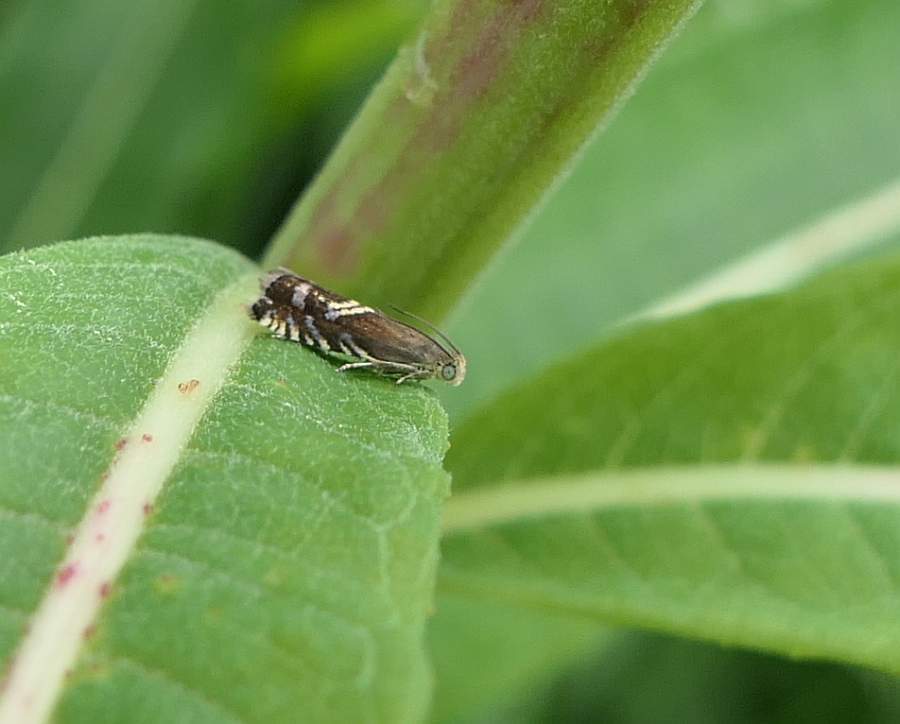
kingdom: Animalia
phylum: Arthropoda
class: Insecta
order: Lepidoptera
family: Tortricidae
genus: Grapholita
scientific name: Grapholita interstinctana
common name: Clover head caterpillar moth
